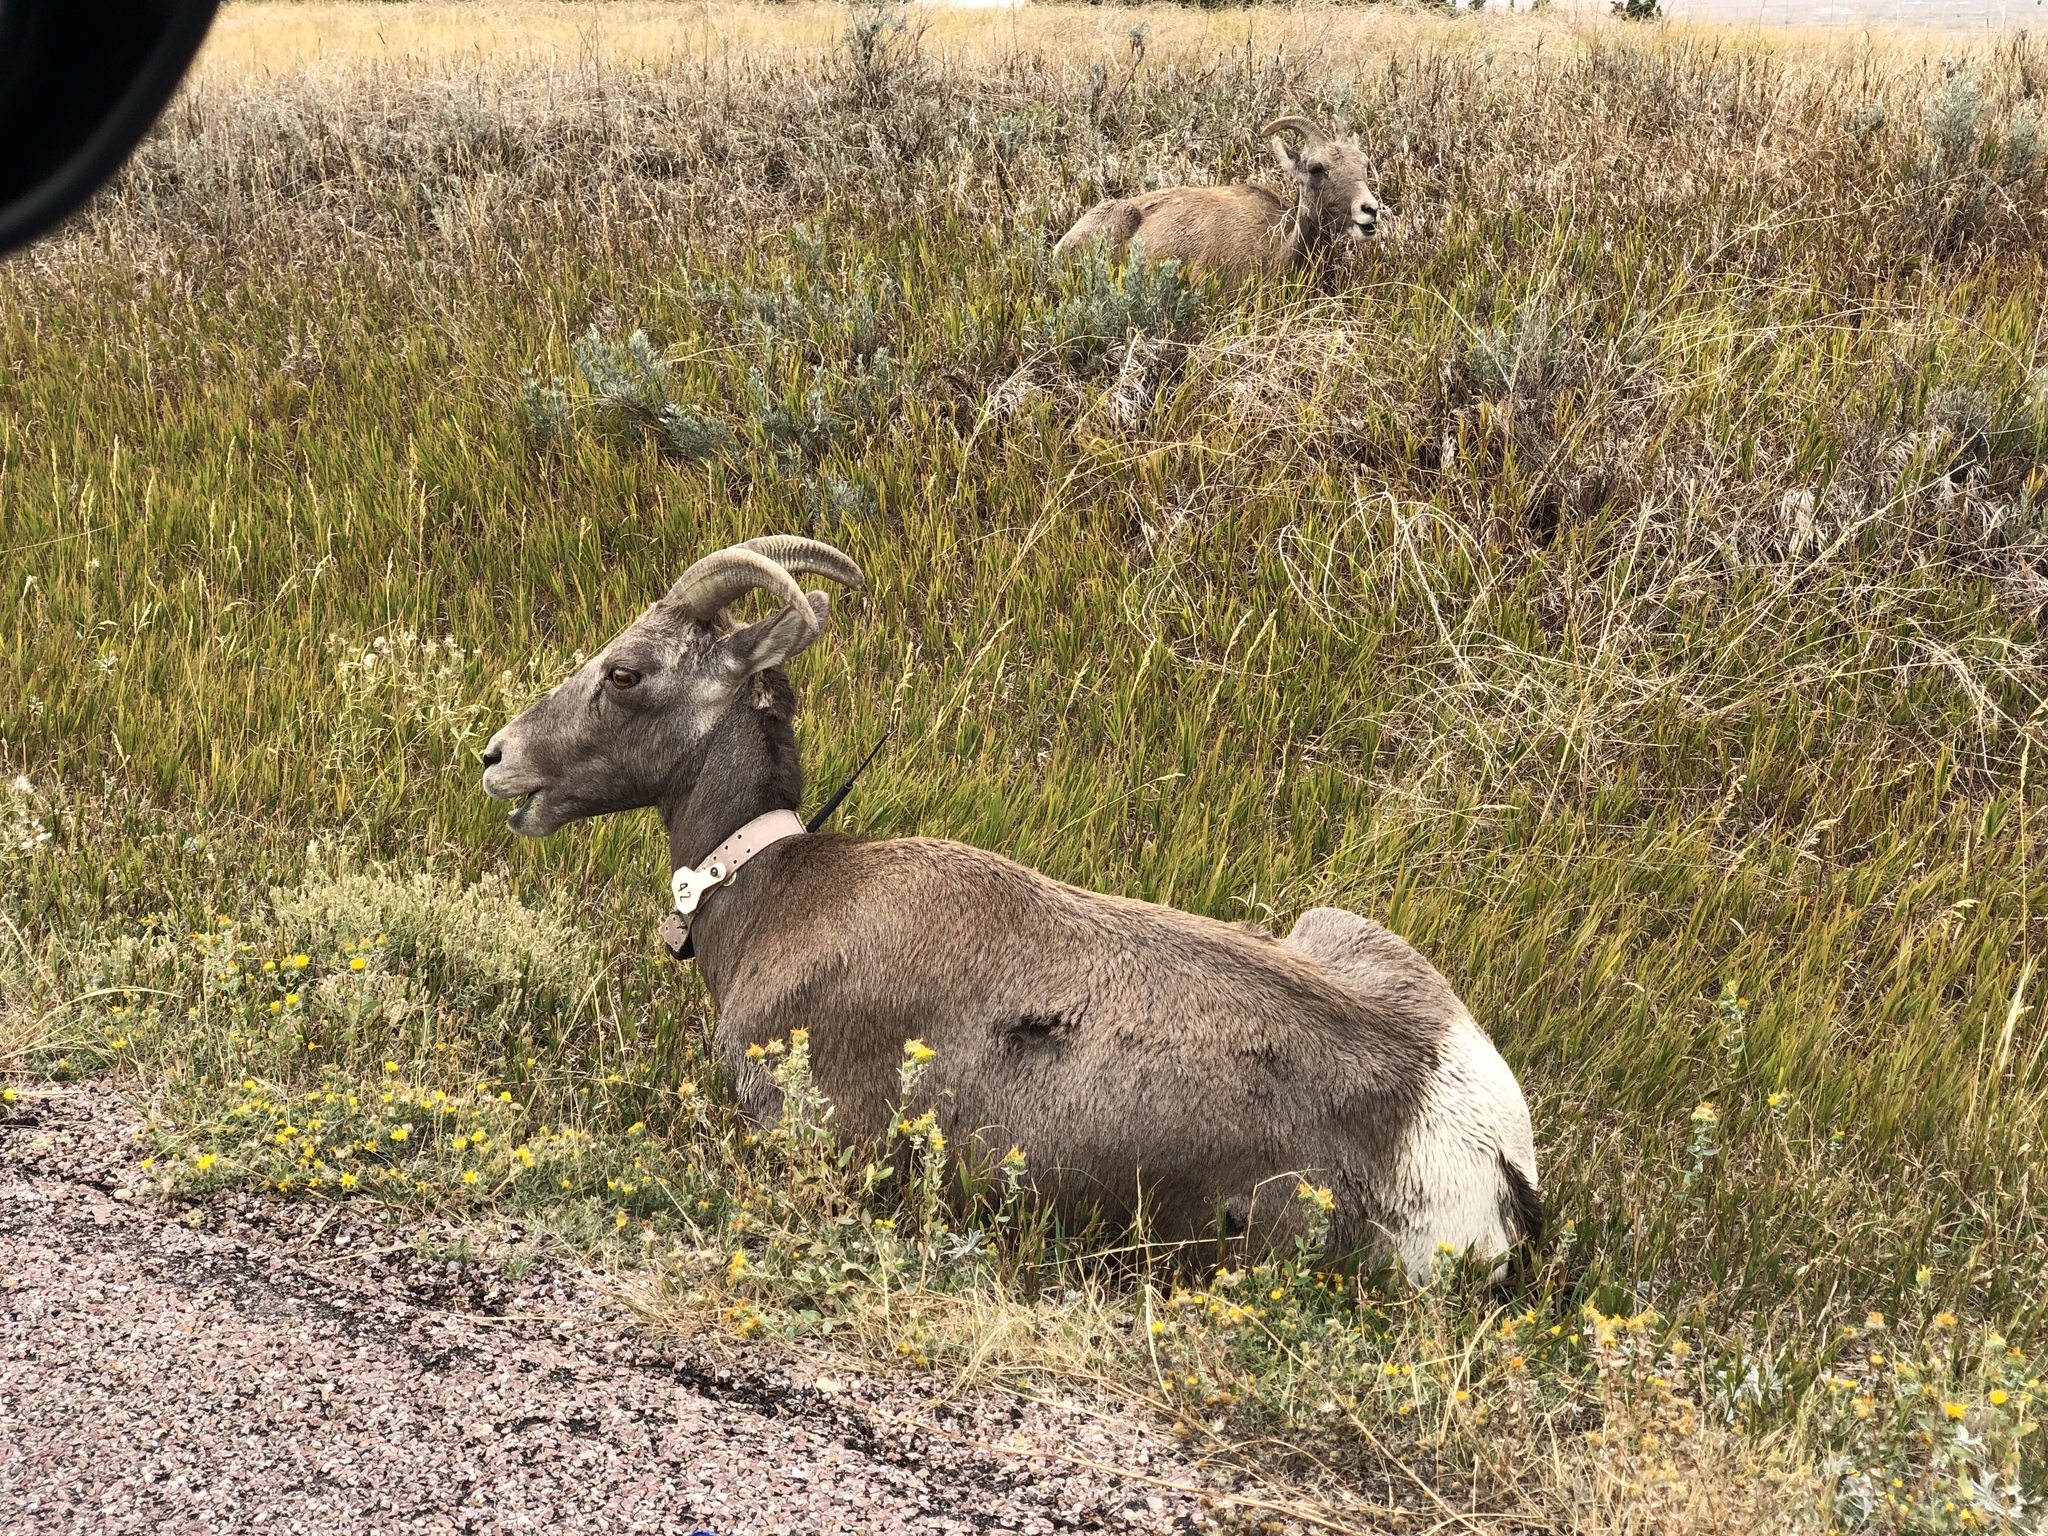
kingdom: Animalia
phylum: Chordata
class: Mammalia
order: Artiodactyla
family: Bovidae
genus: Ovis
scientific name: Ovis canadensis
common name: Bighorn sheep
